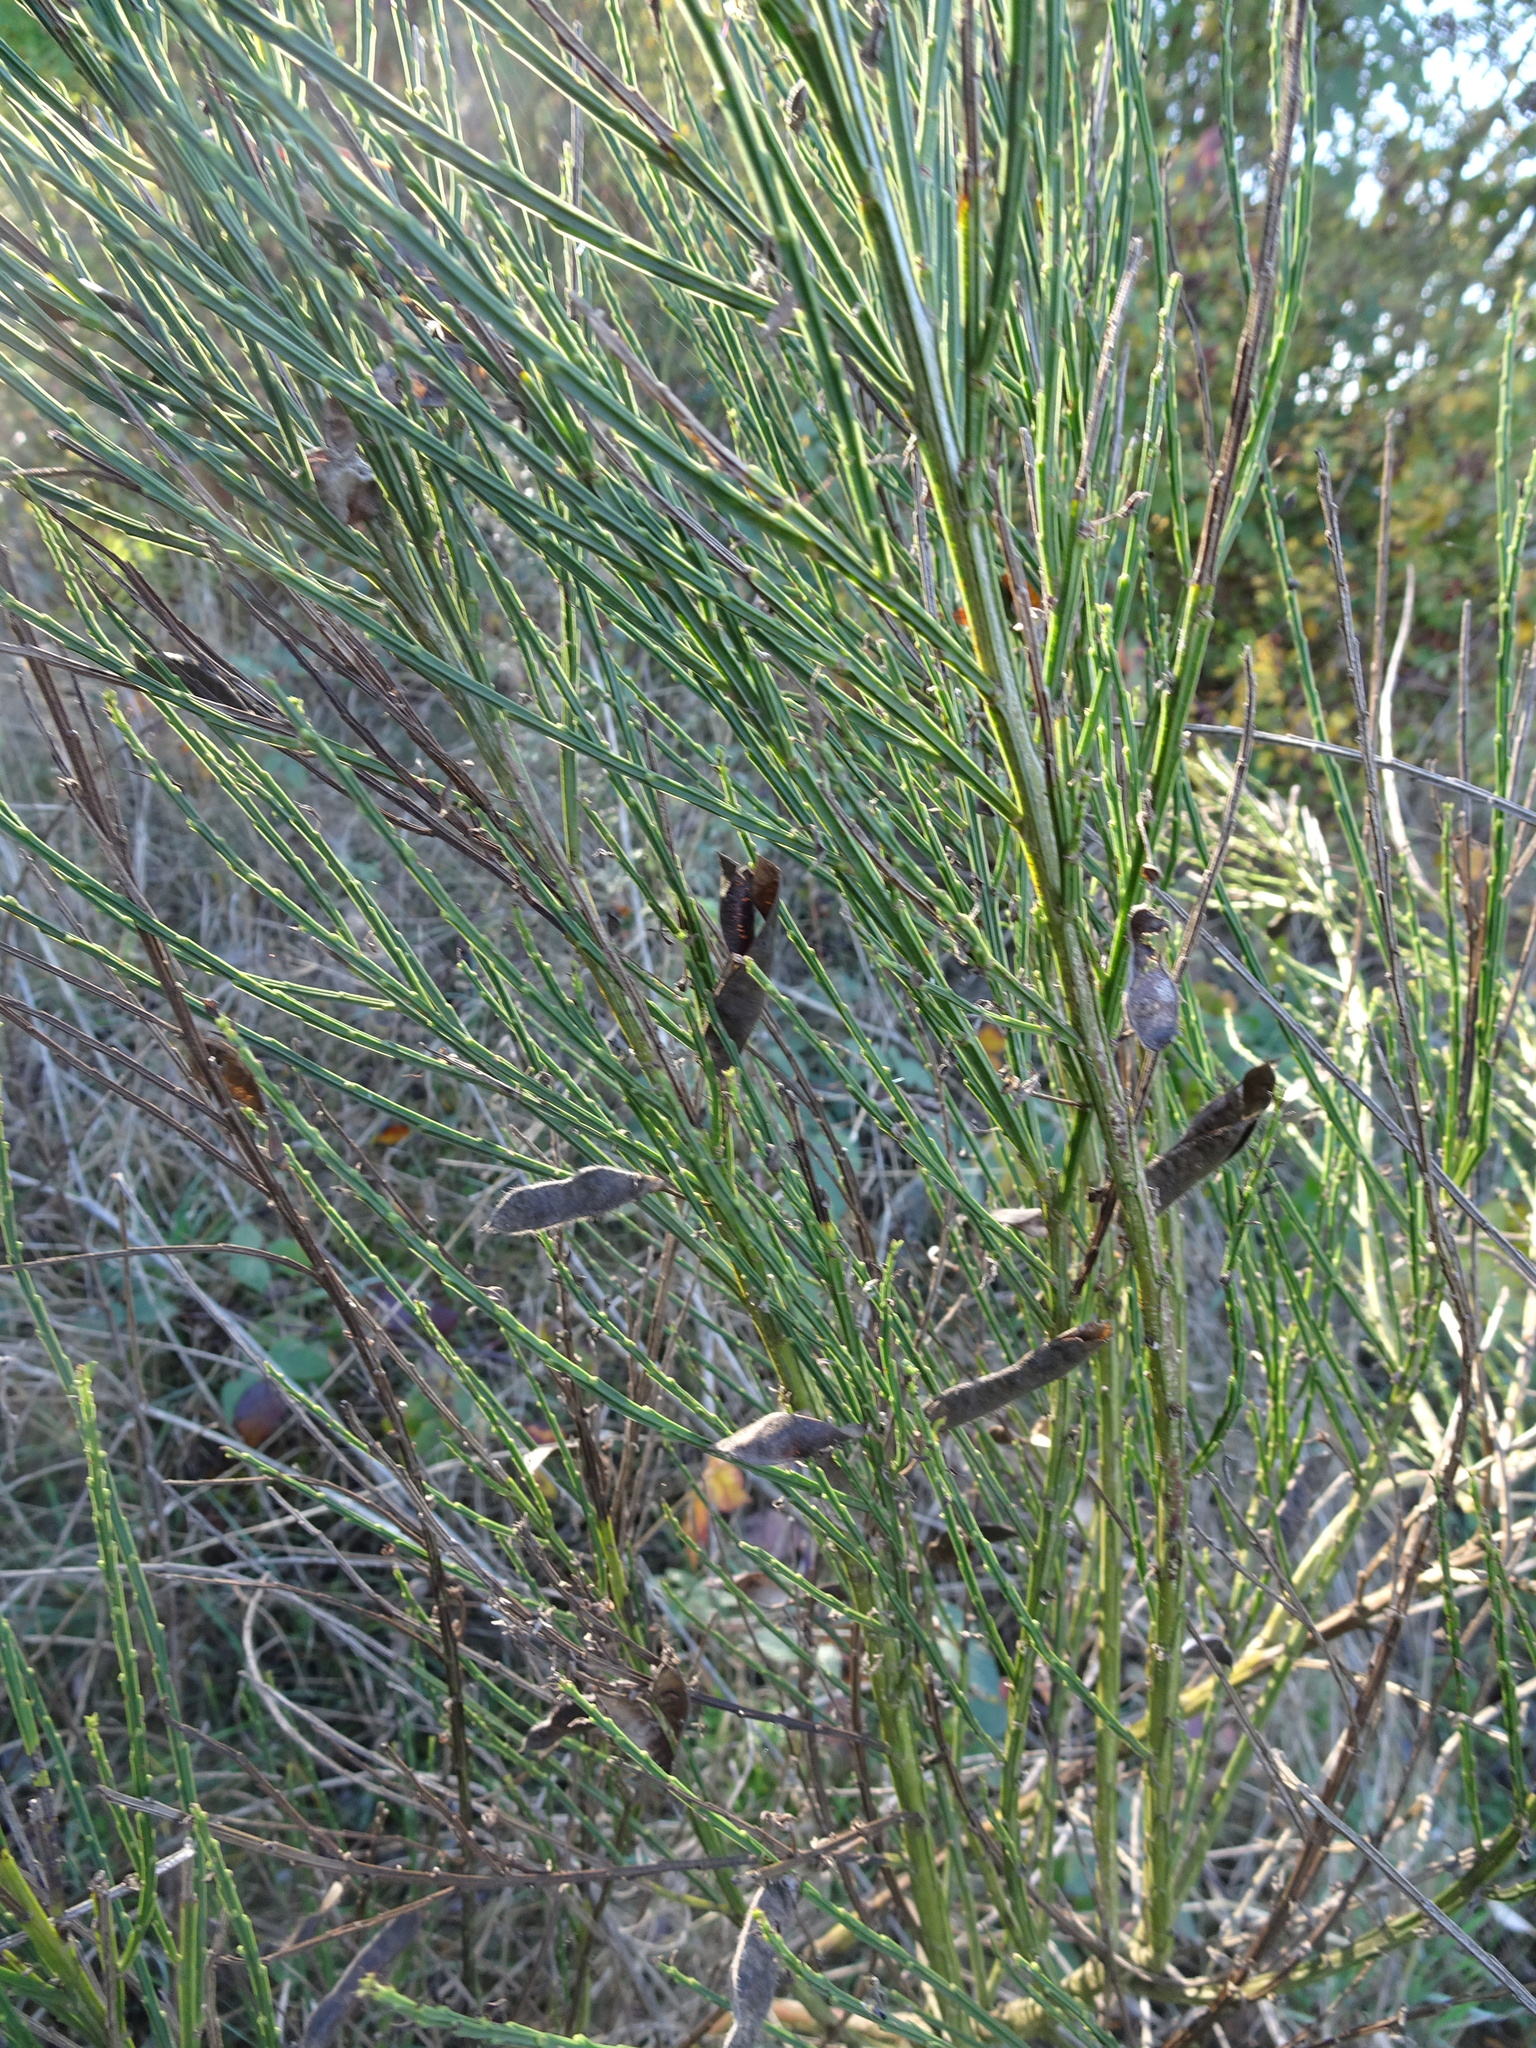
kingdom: Plantae
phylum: Tracheophyta
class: Magnoliopsida
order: Fabales
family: Fabaceae
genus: Cytisus
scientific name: Cytisus scoparius
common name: Scotch broom
